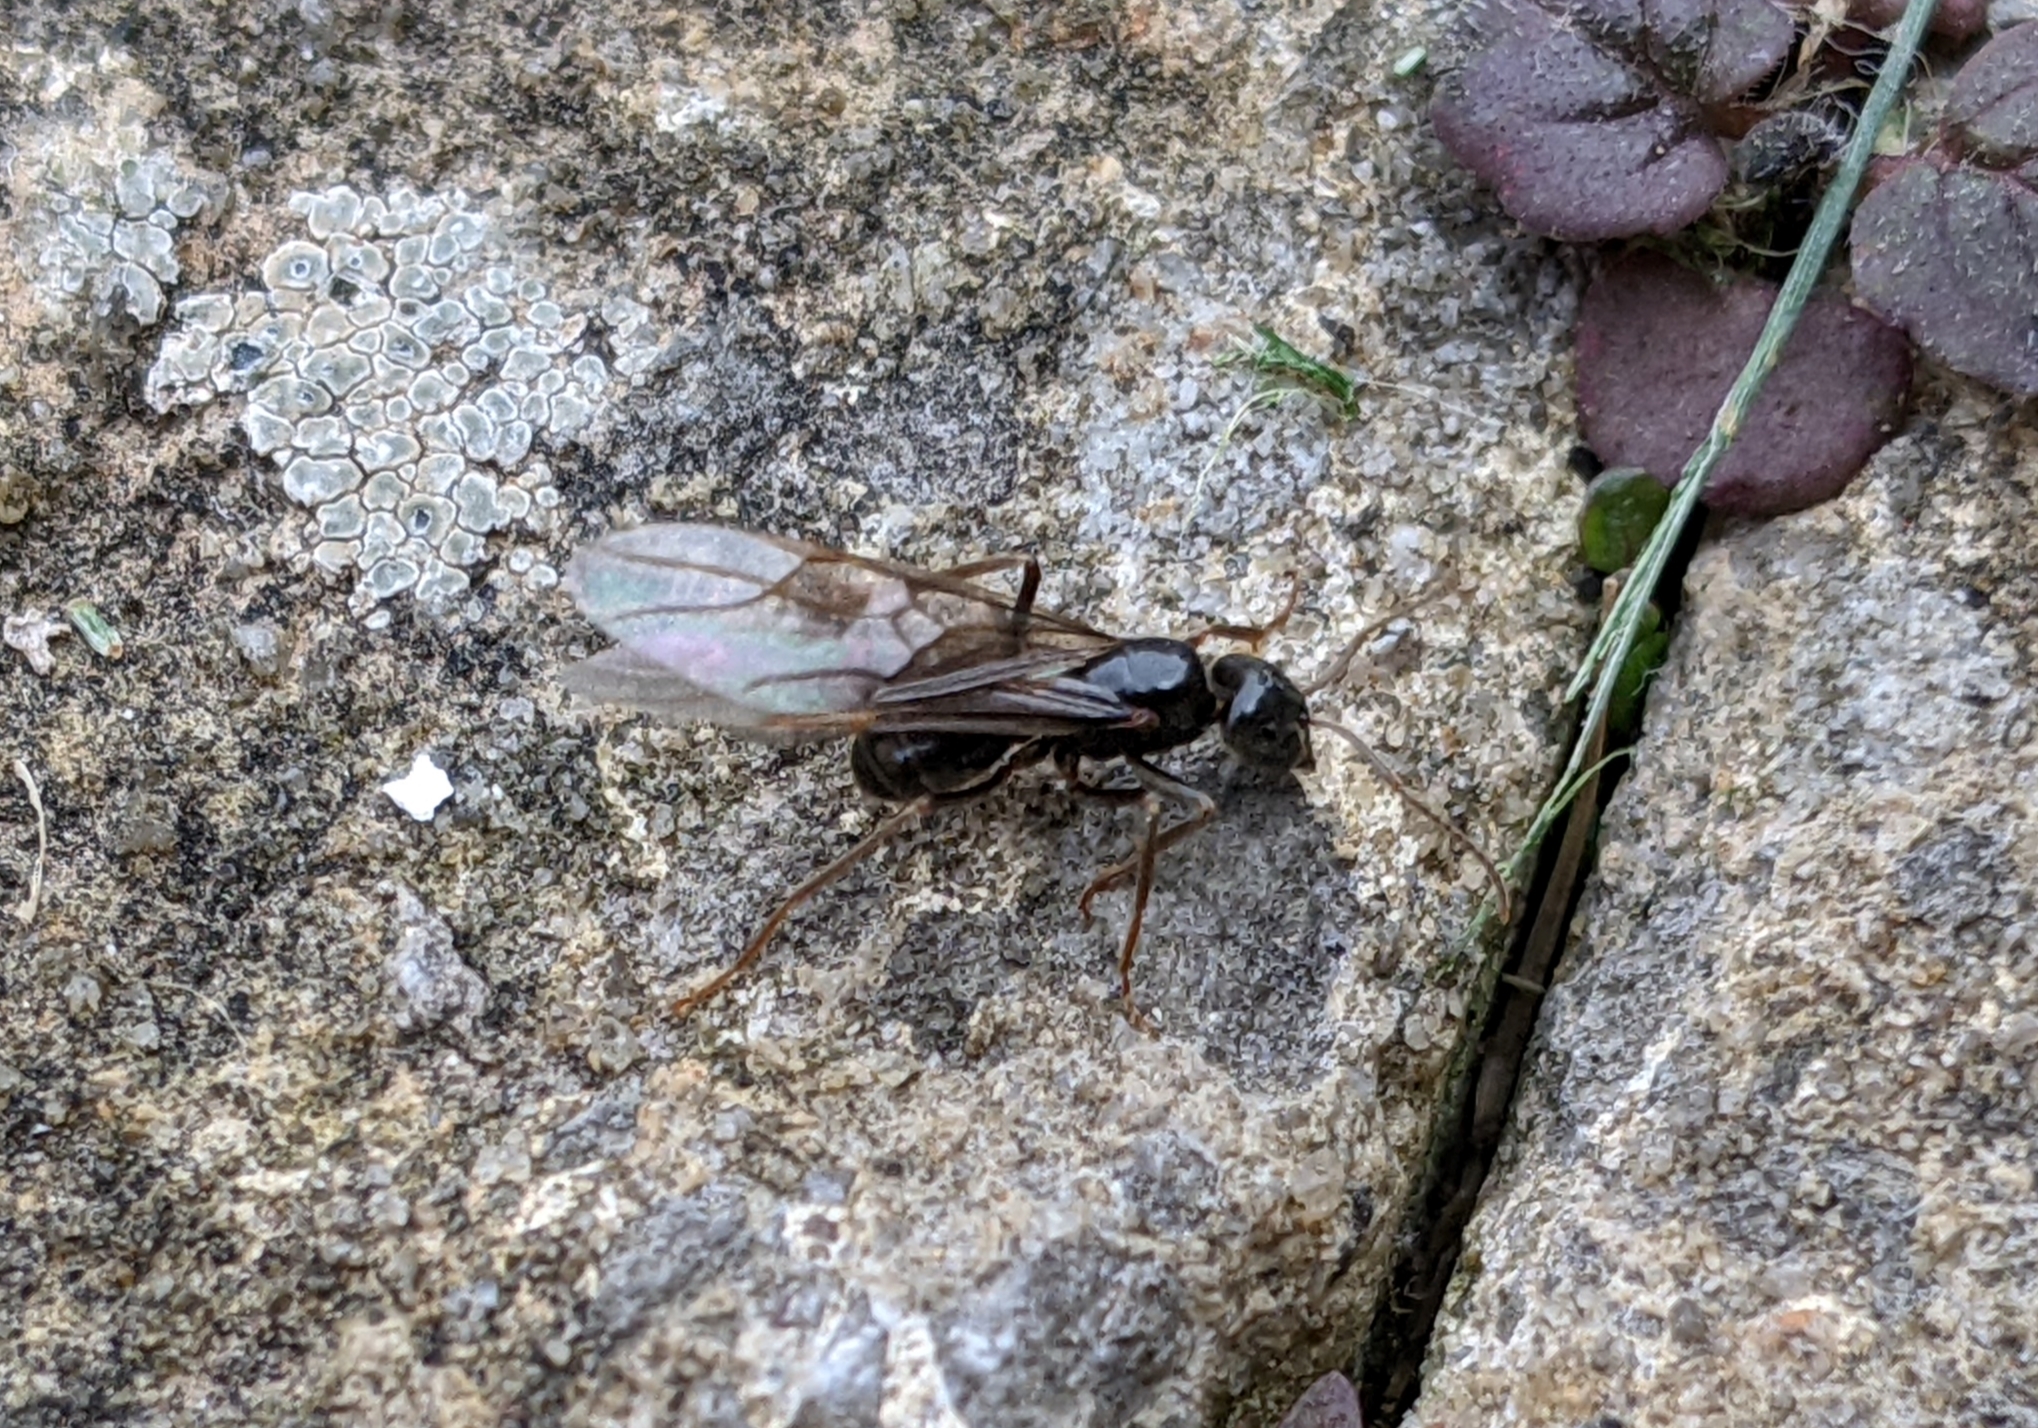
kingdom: Animalia
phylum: Arthropoda
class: Insecta
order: Hymenoptera
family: Formicidae
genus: Lasius
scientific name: Lasius fuliginosus
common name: Jet ant
